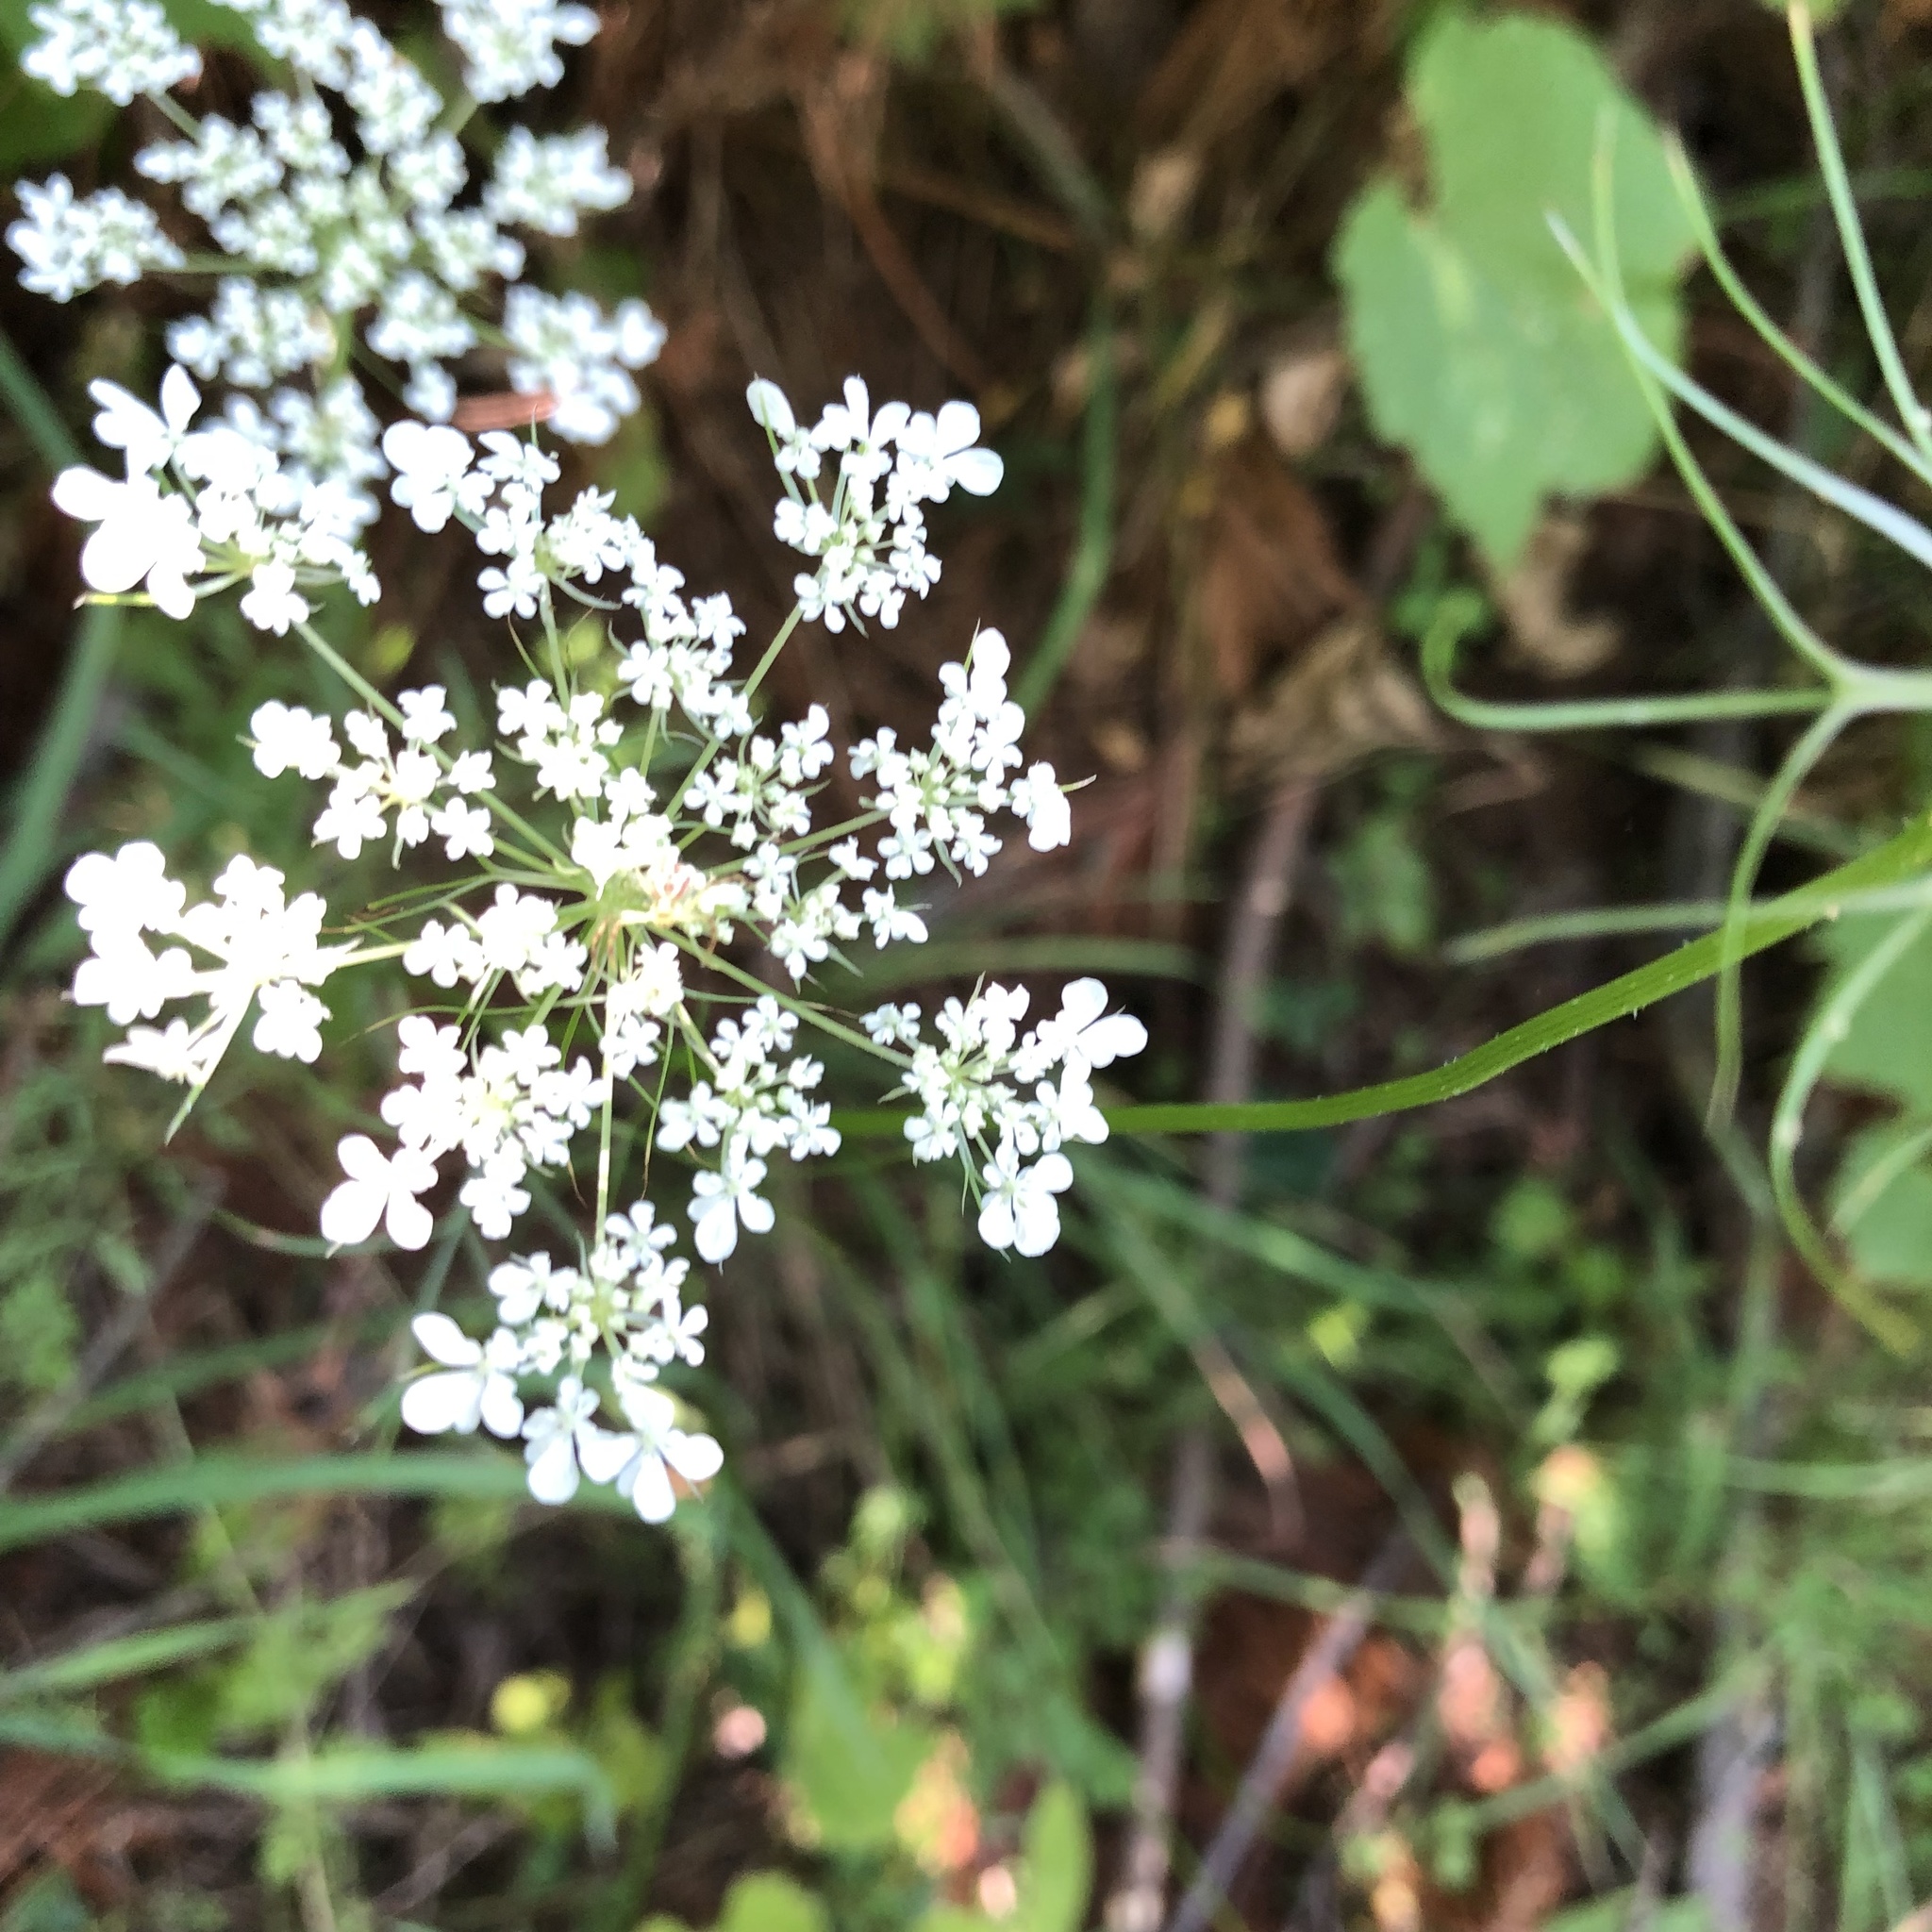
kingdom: Plantae
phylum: Tracheophyta
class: Magnoliopsida
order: Apiales
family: Apiaceae
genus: Daucus
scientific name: Daucus carota
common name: Wild carrot
